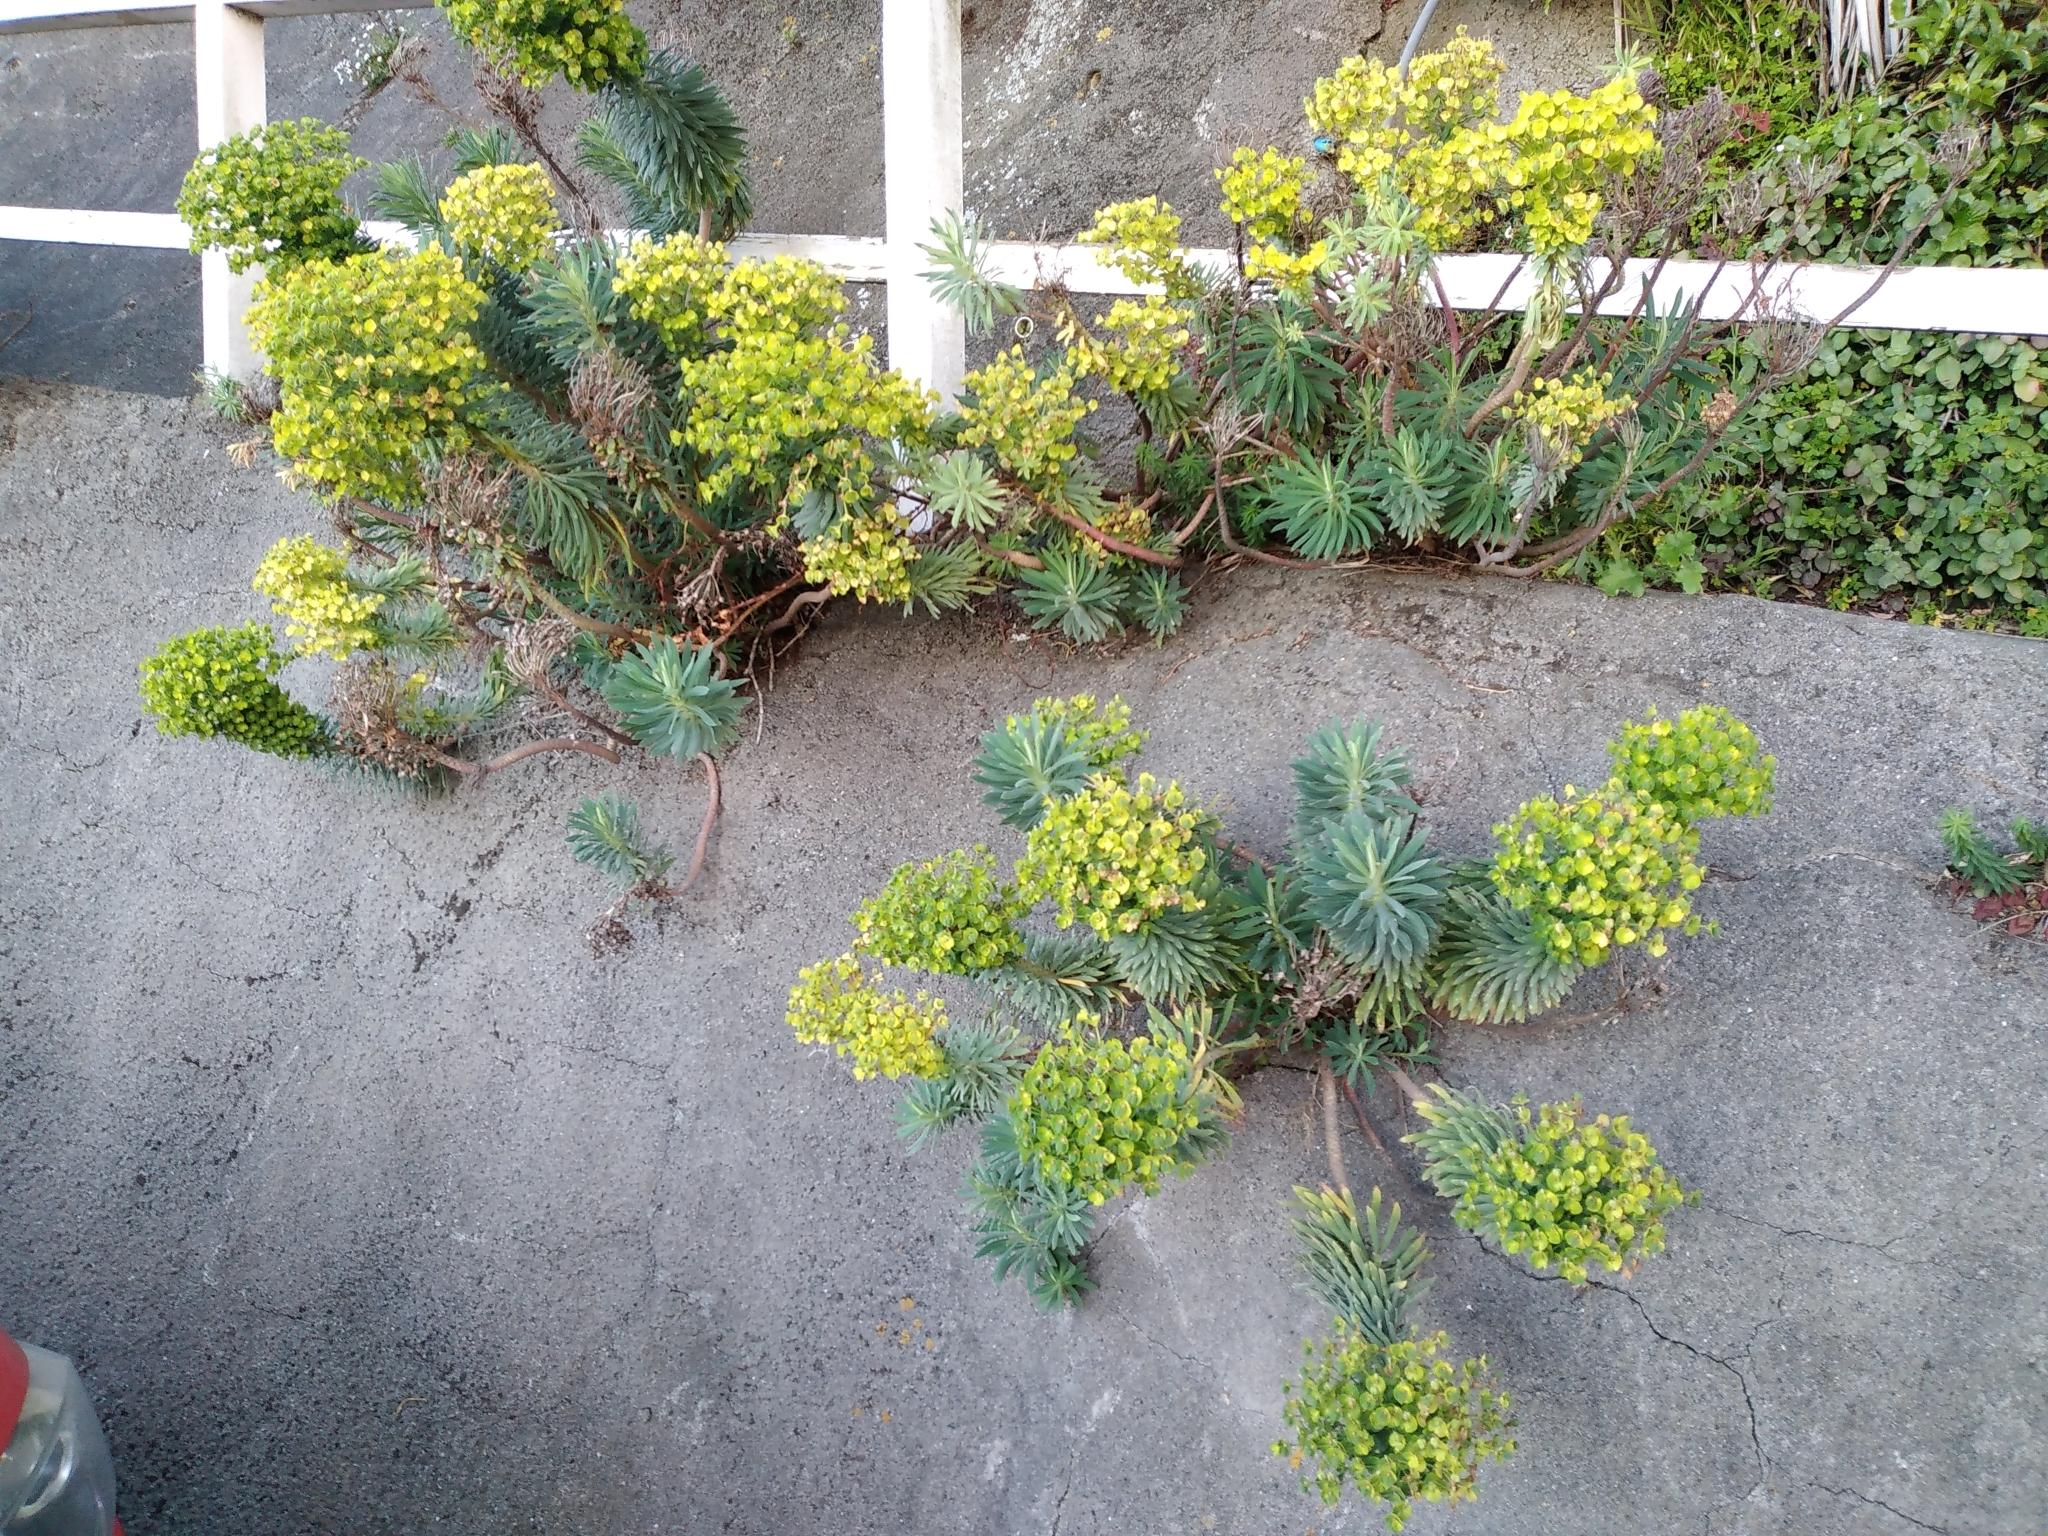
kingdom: Plantae
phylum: Tracheophyta
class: Magnoliopsida
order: Malpighiales
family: Euphorbiaceae
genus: Euphorbia
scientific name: Euphorbia characias
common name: Mediterranean spurge
